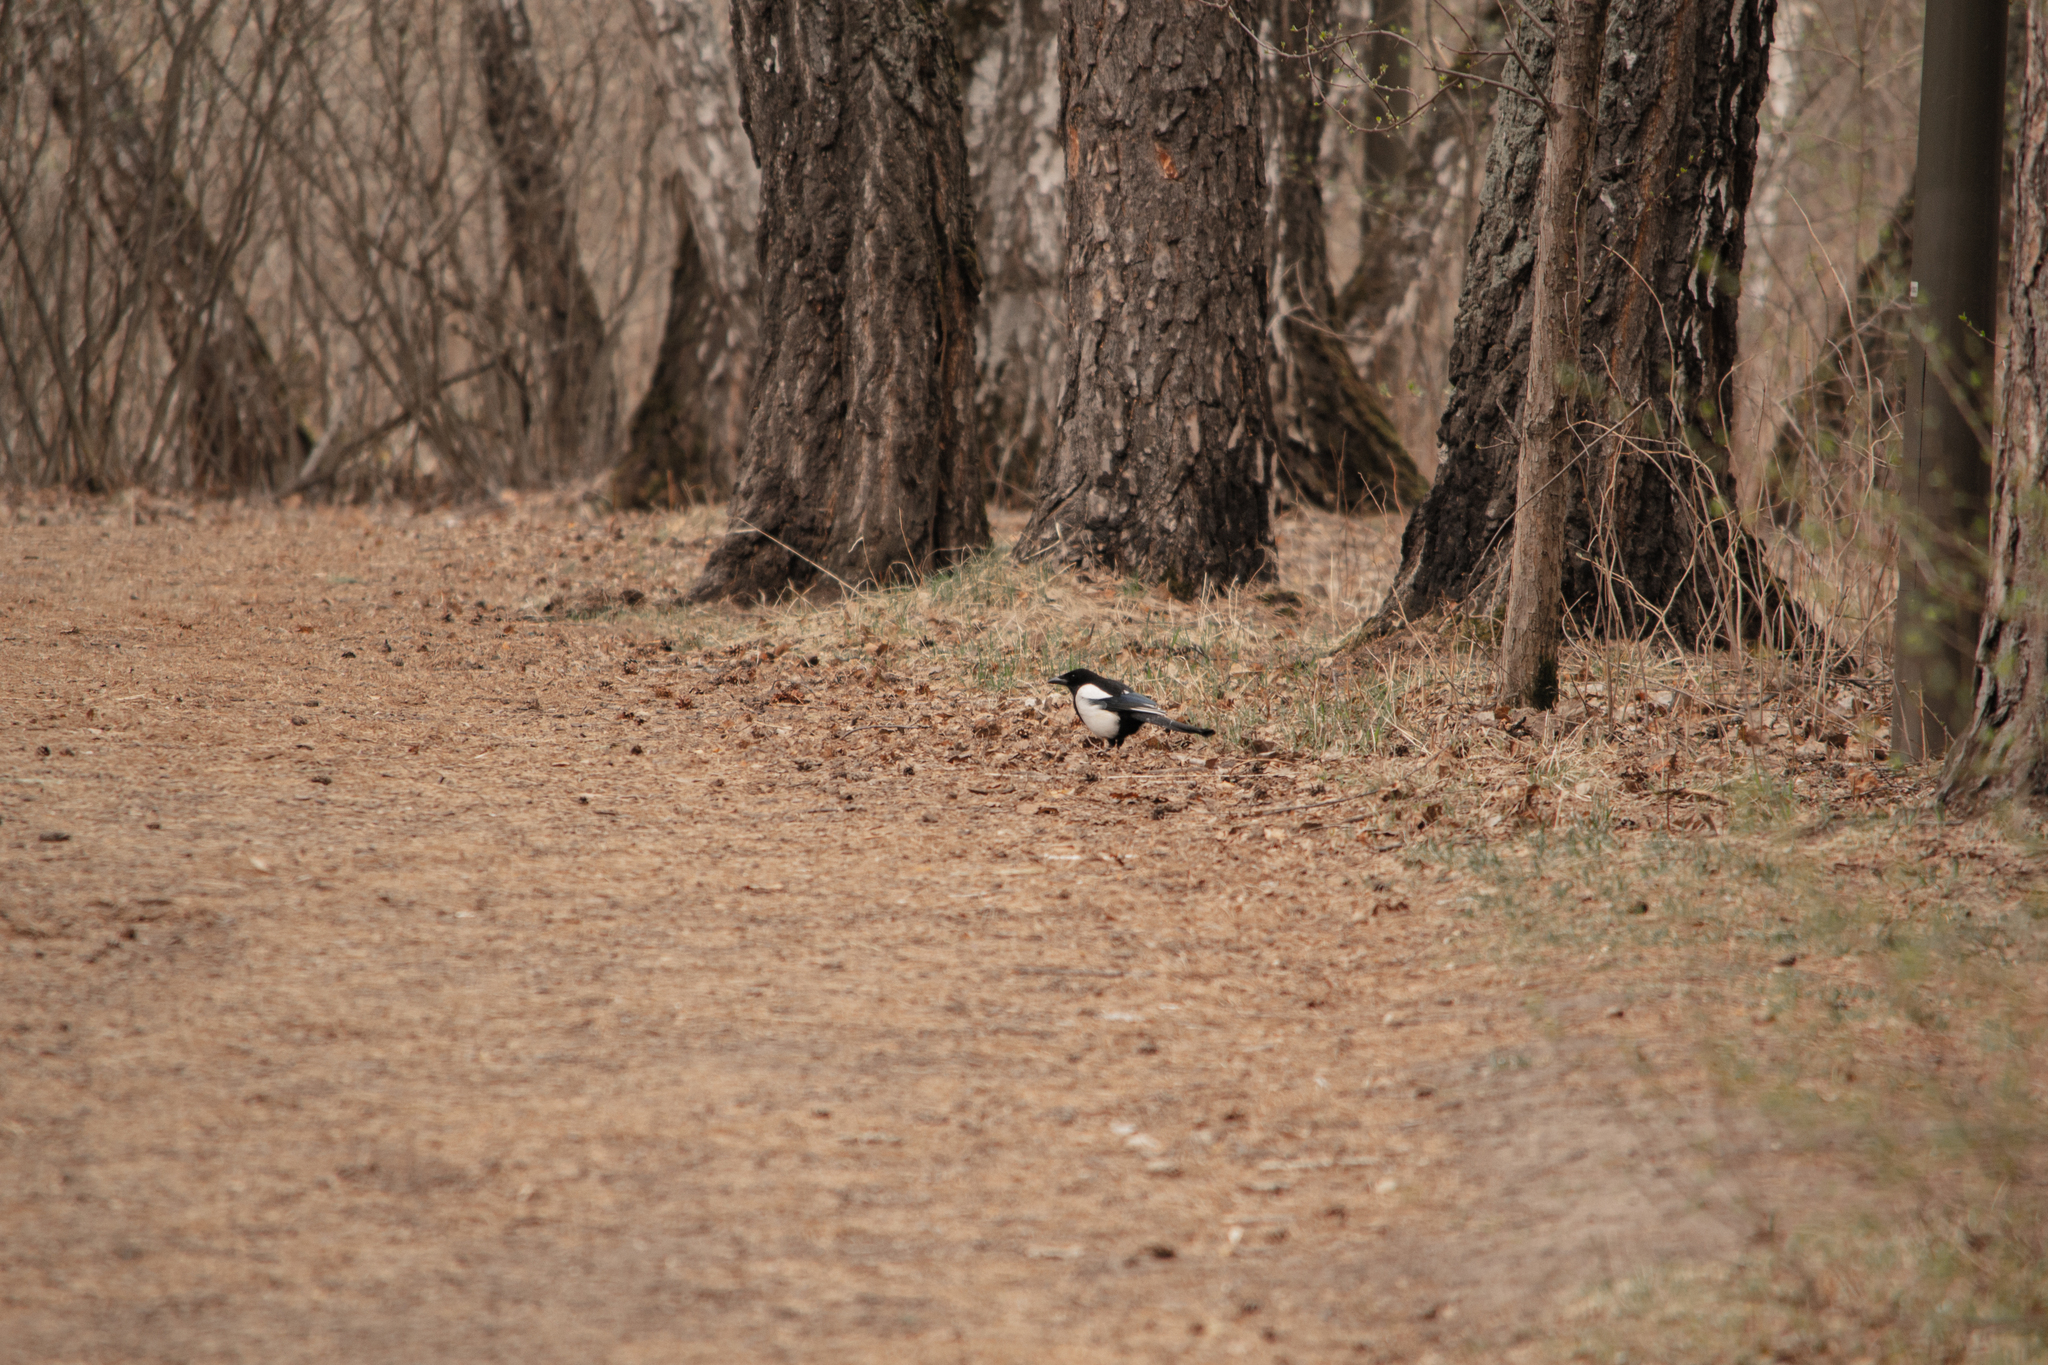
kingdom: Animalia
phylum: Chordata
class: Aves
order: Passeriformes
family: Corvidae
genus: Pica
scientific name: Pica pica
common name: Eurasian magpie
